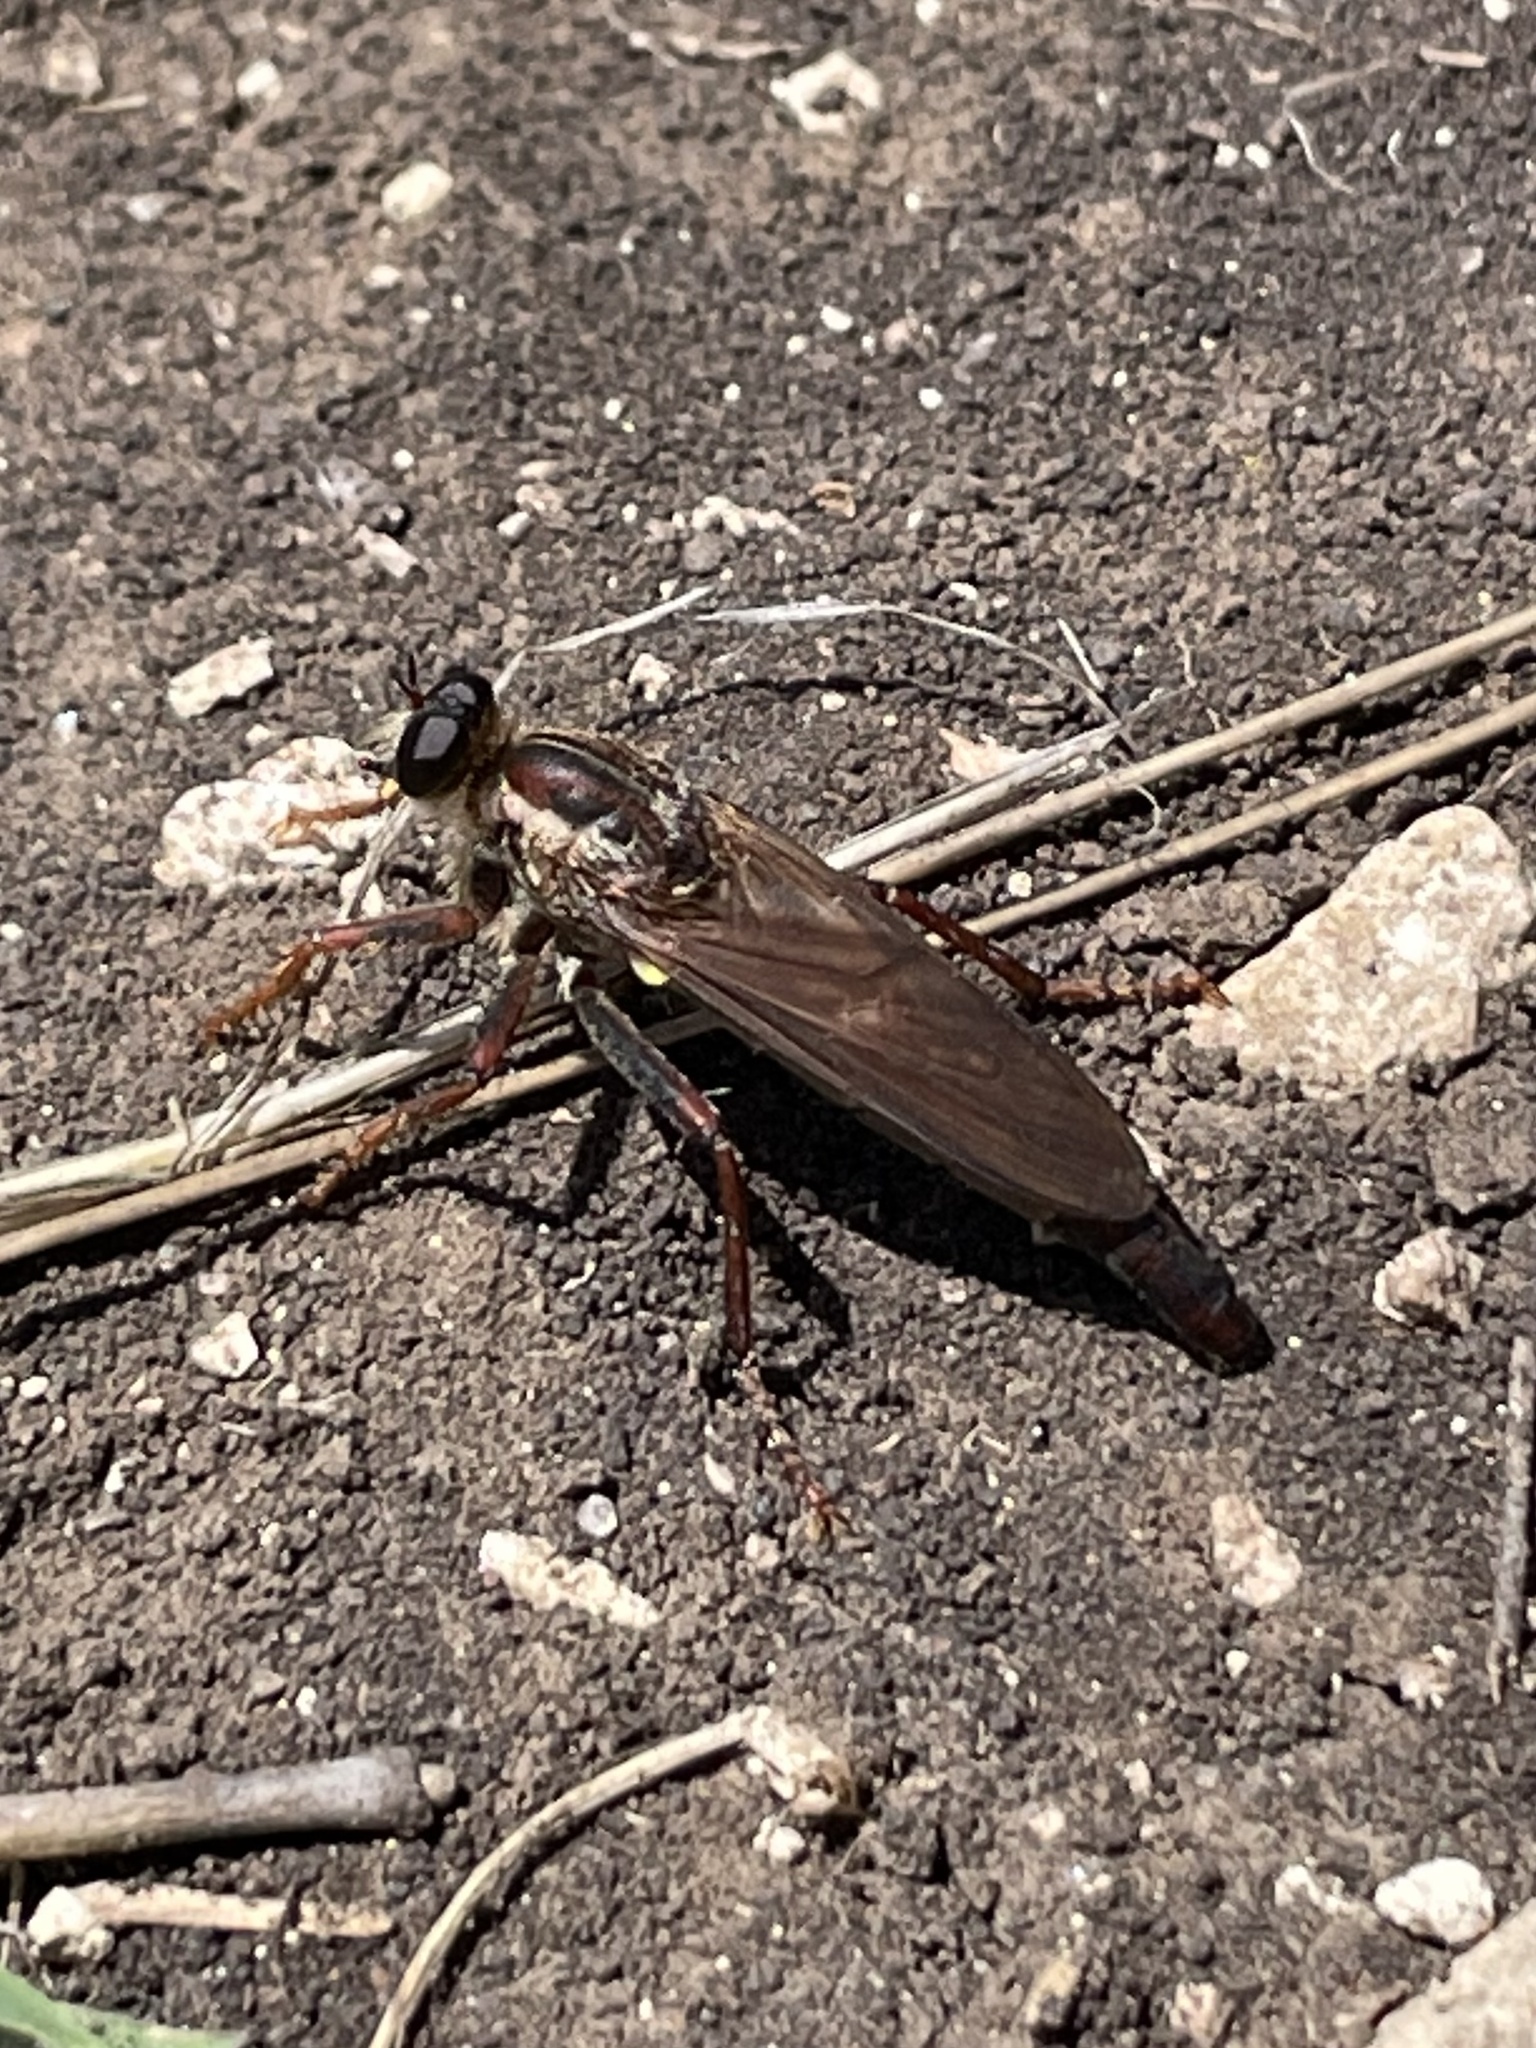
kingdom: Animalia
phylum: Arthropoda
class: Insecta
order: Diptera
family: Asilidae
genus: Stenopogon
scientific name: Stenopogon texanus
